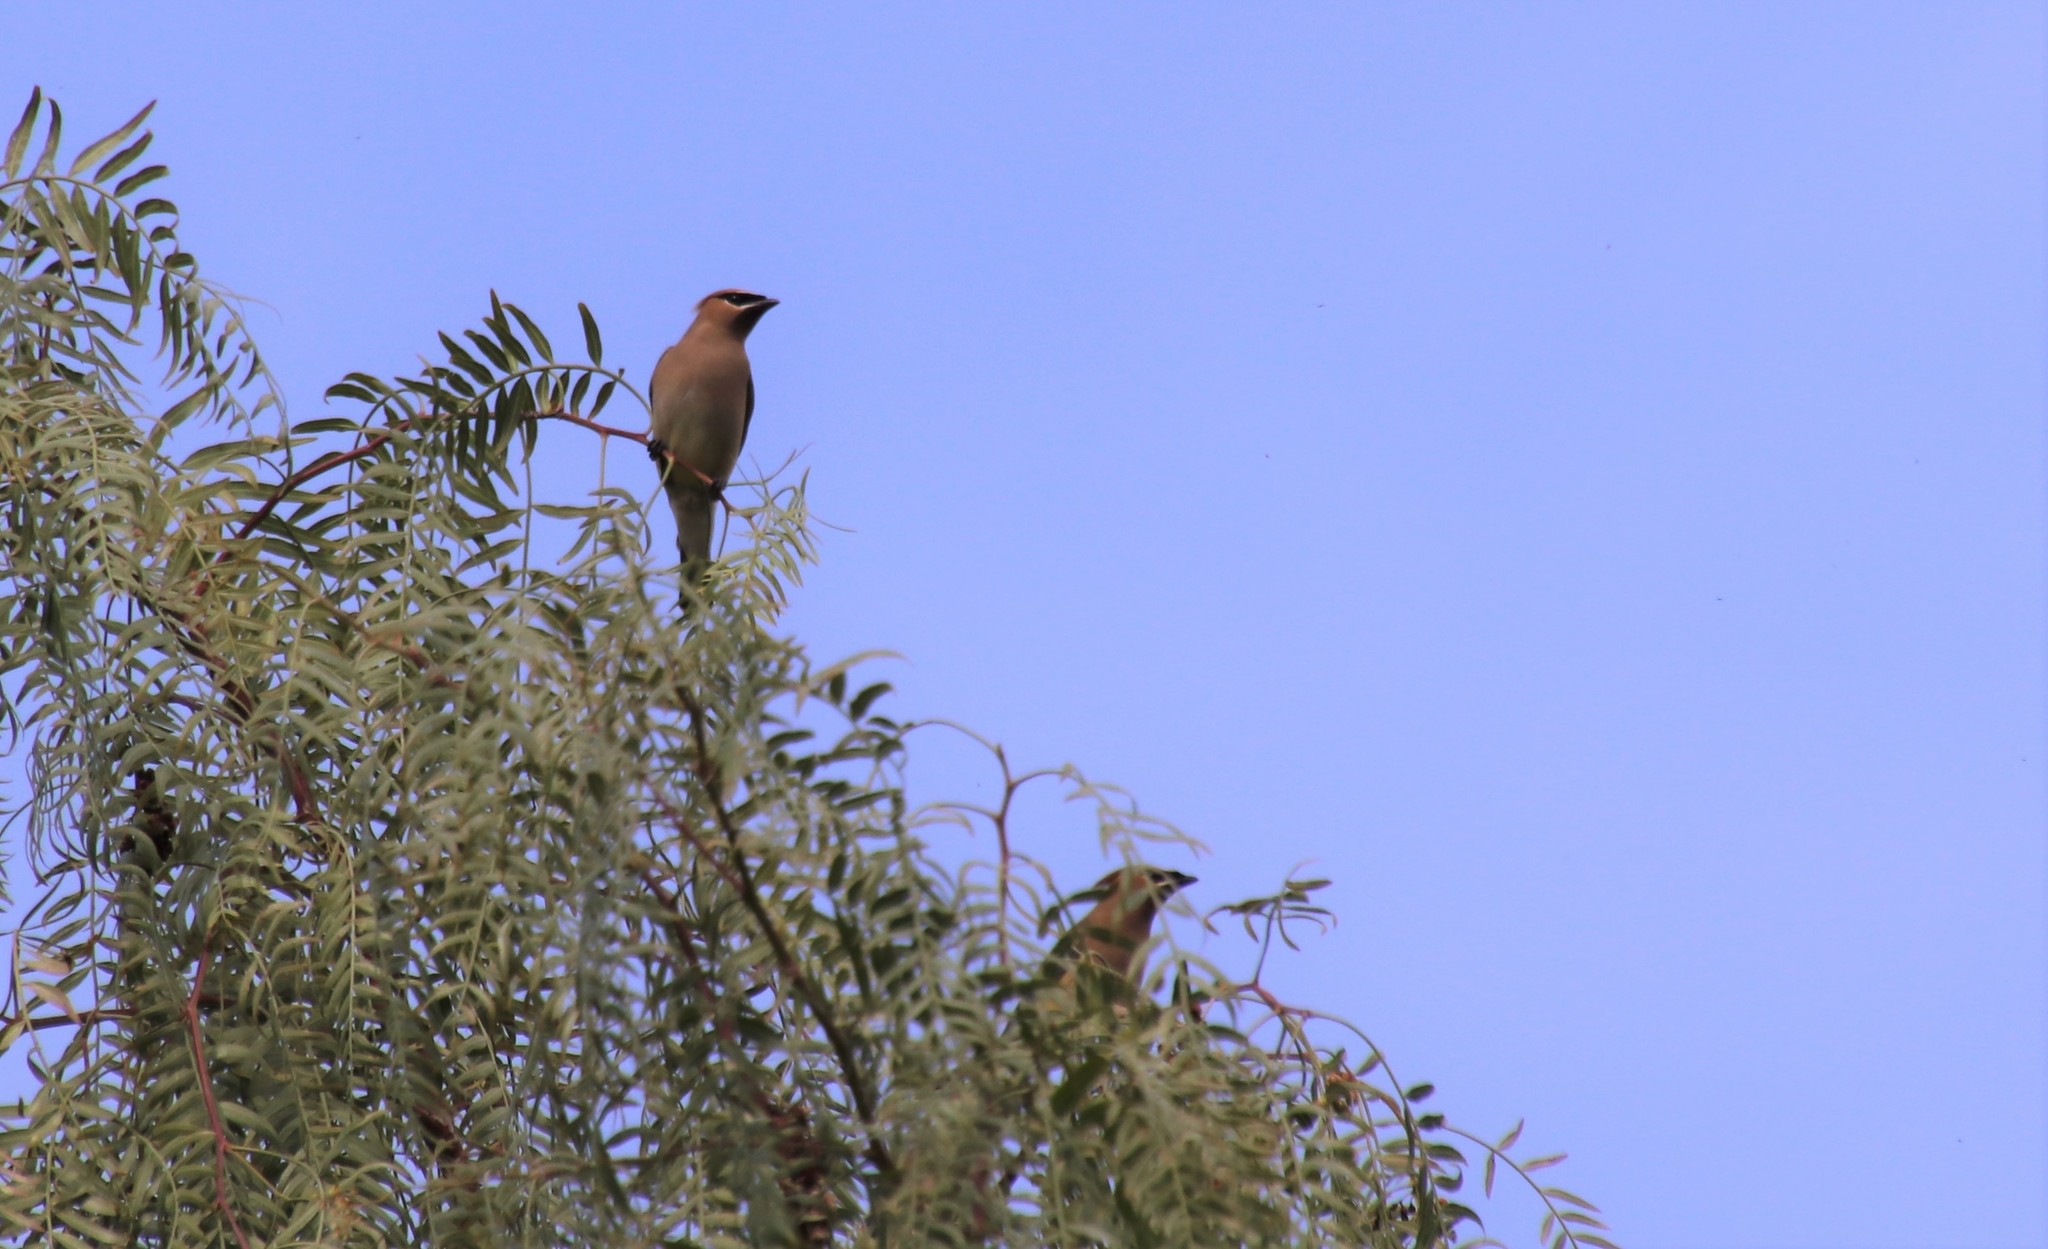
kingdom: Animalia
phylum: Chordata
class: Aves
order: Passeriformes
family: Bombycillidae
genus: Bombycilla
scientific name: Bombycilla cedrorum
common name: Cedar waxwing
